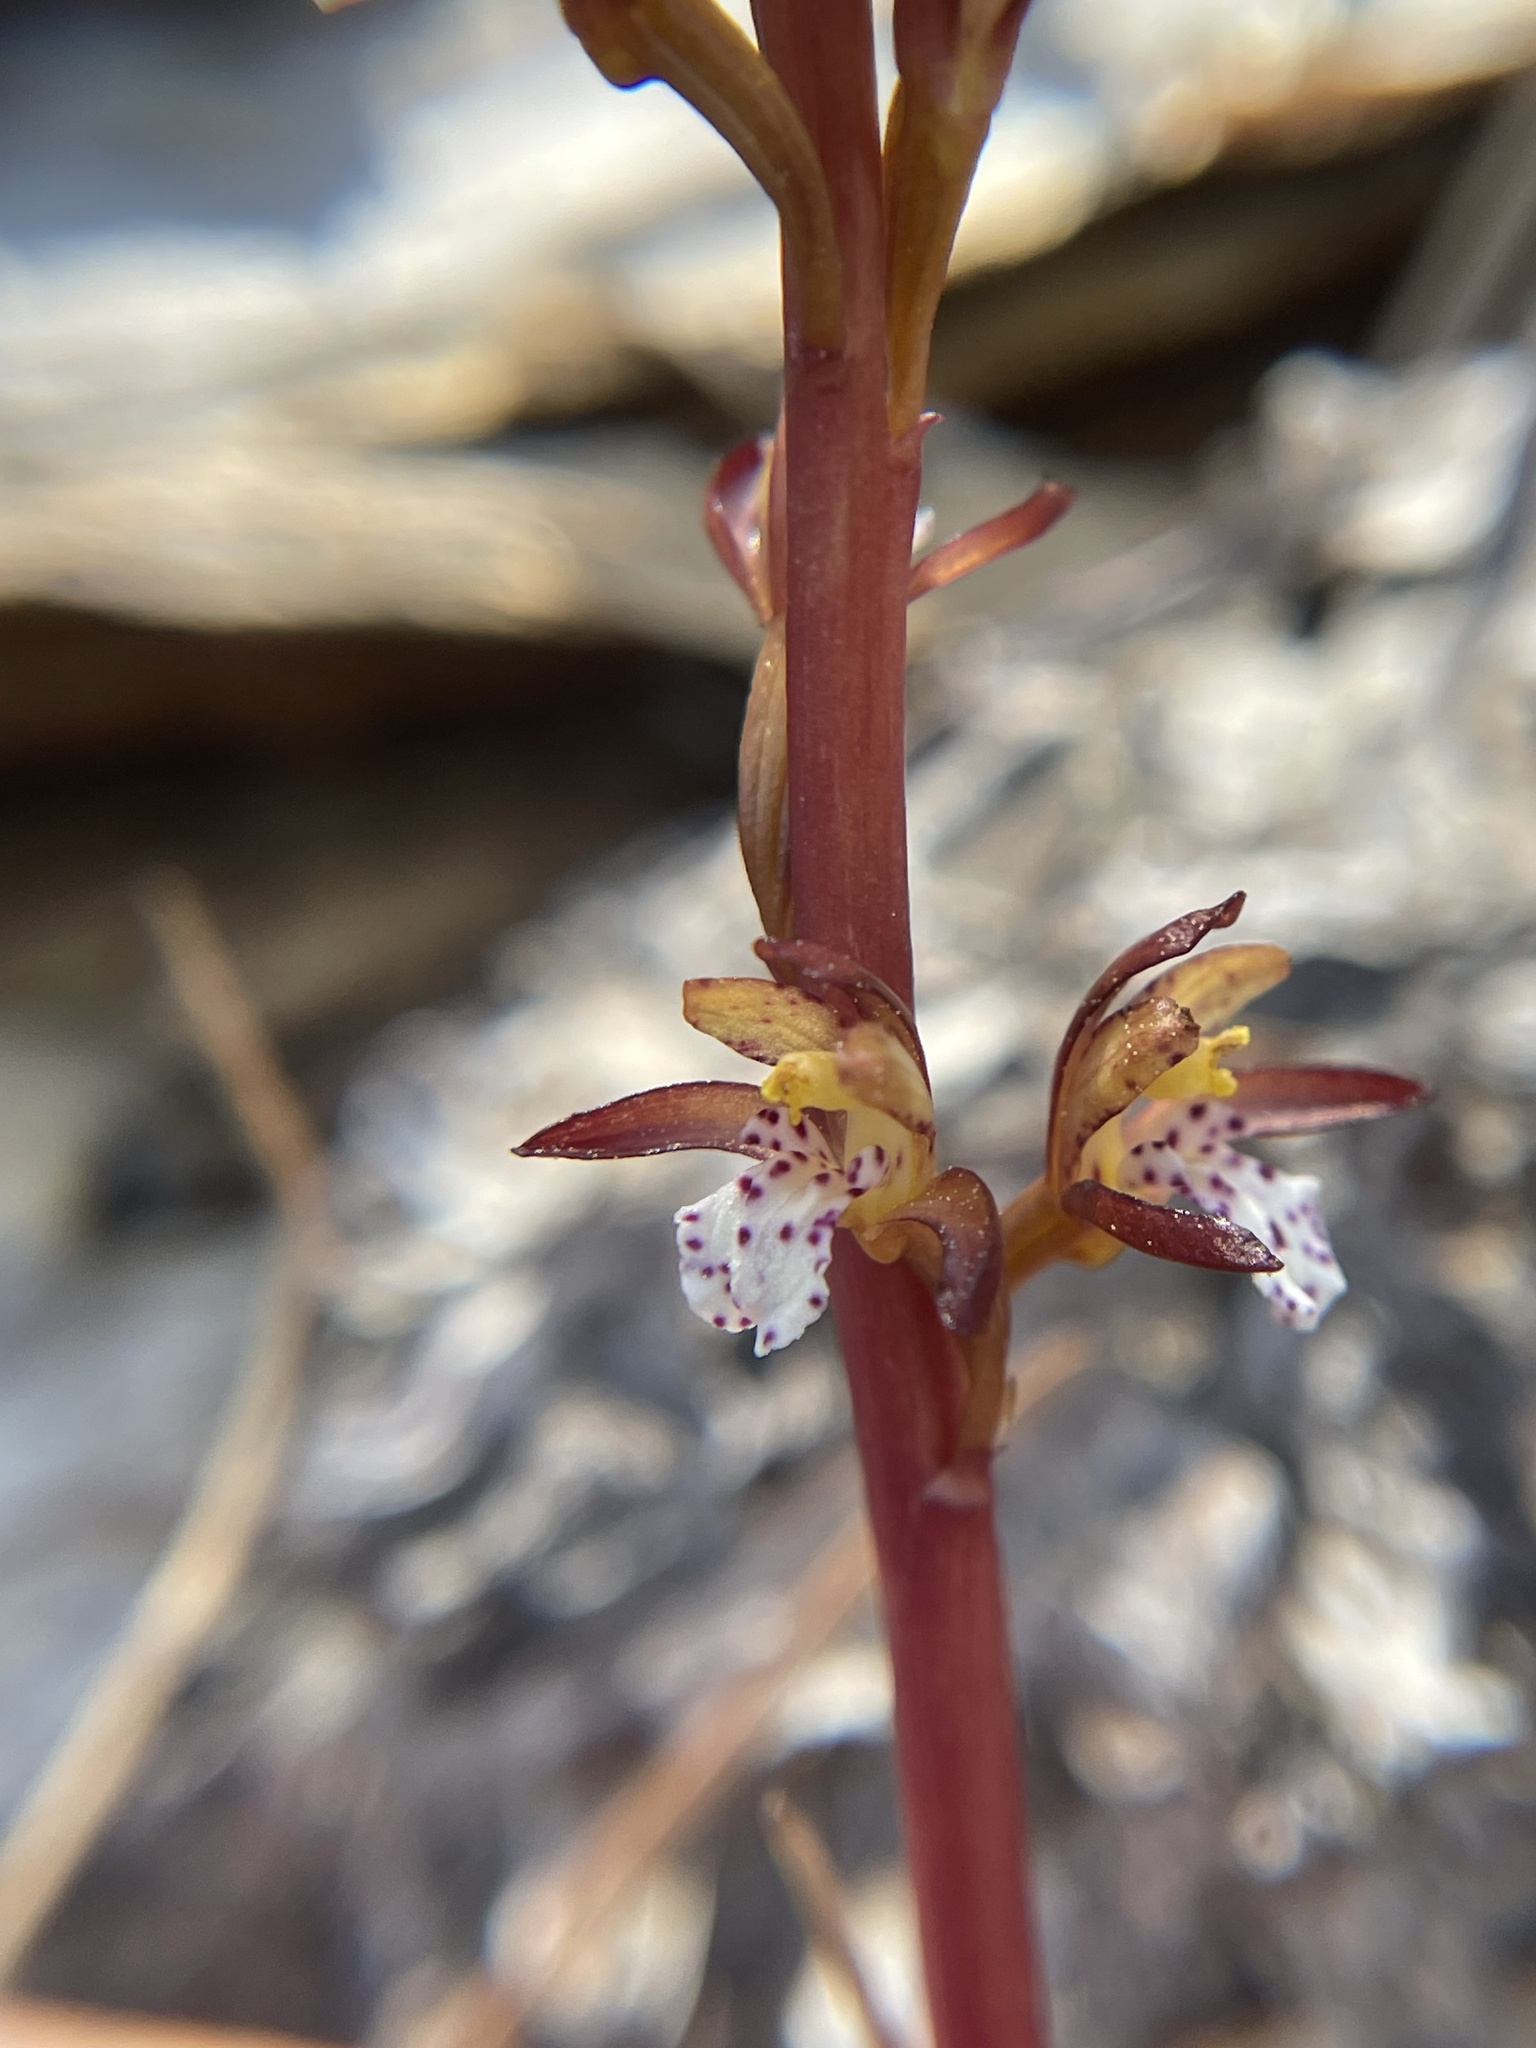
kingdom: Plantae
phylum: Tracheophyta
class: Liliopsida
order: Asparagales
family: Orchidaceae
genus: Corallorhiza
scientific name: Corallorhiza maculata
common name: Spotted coralroot
